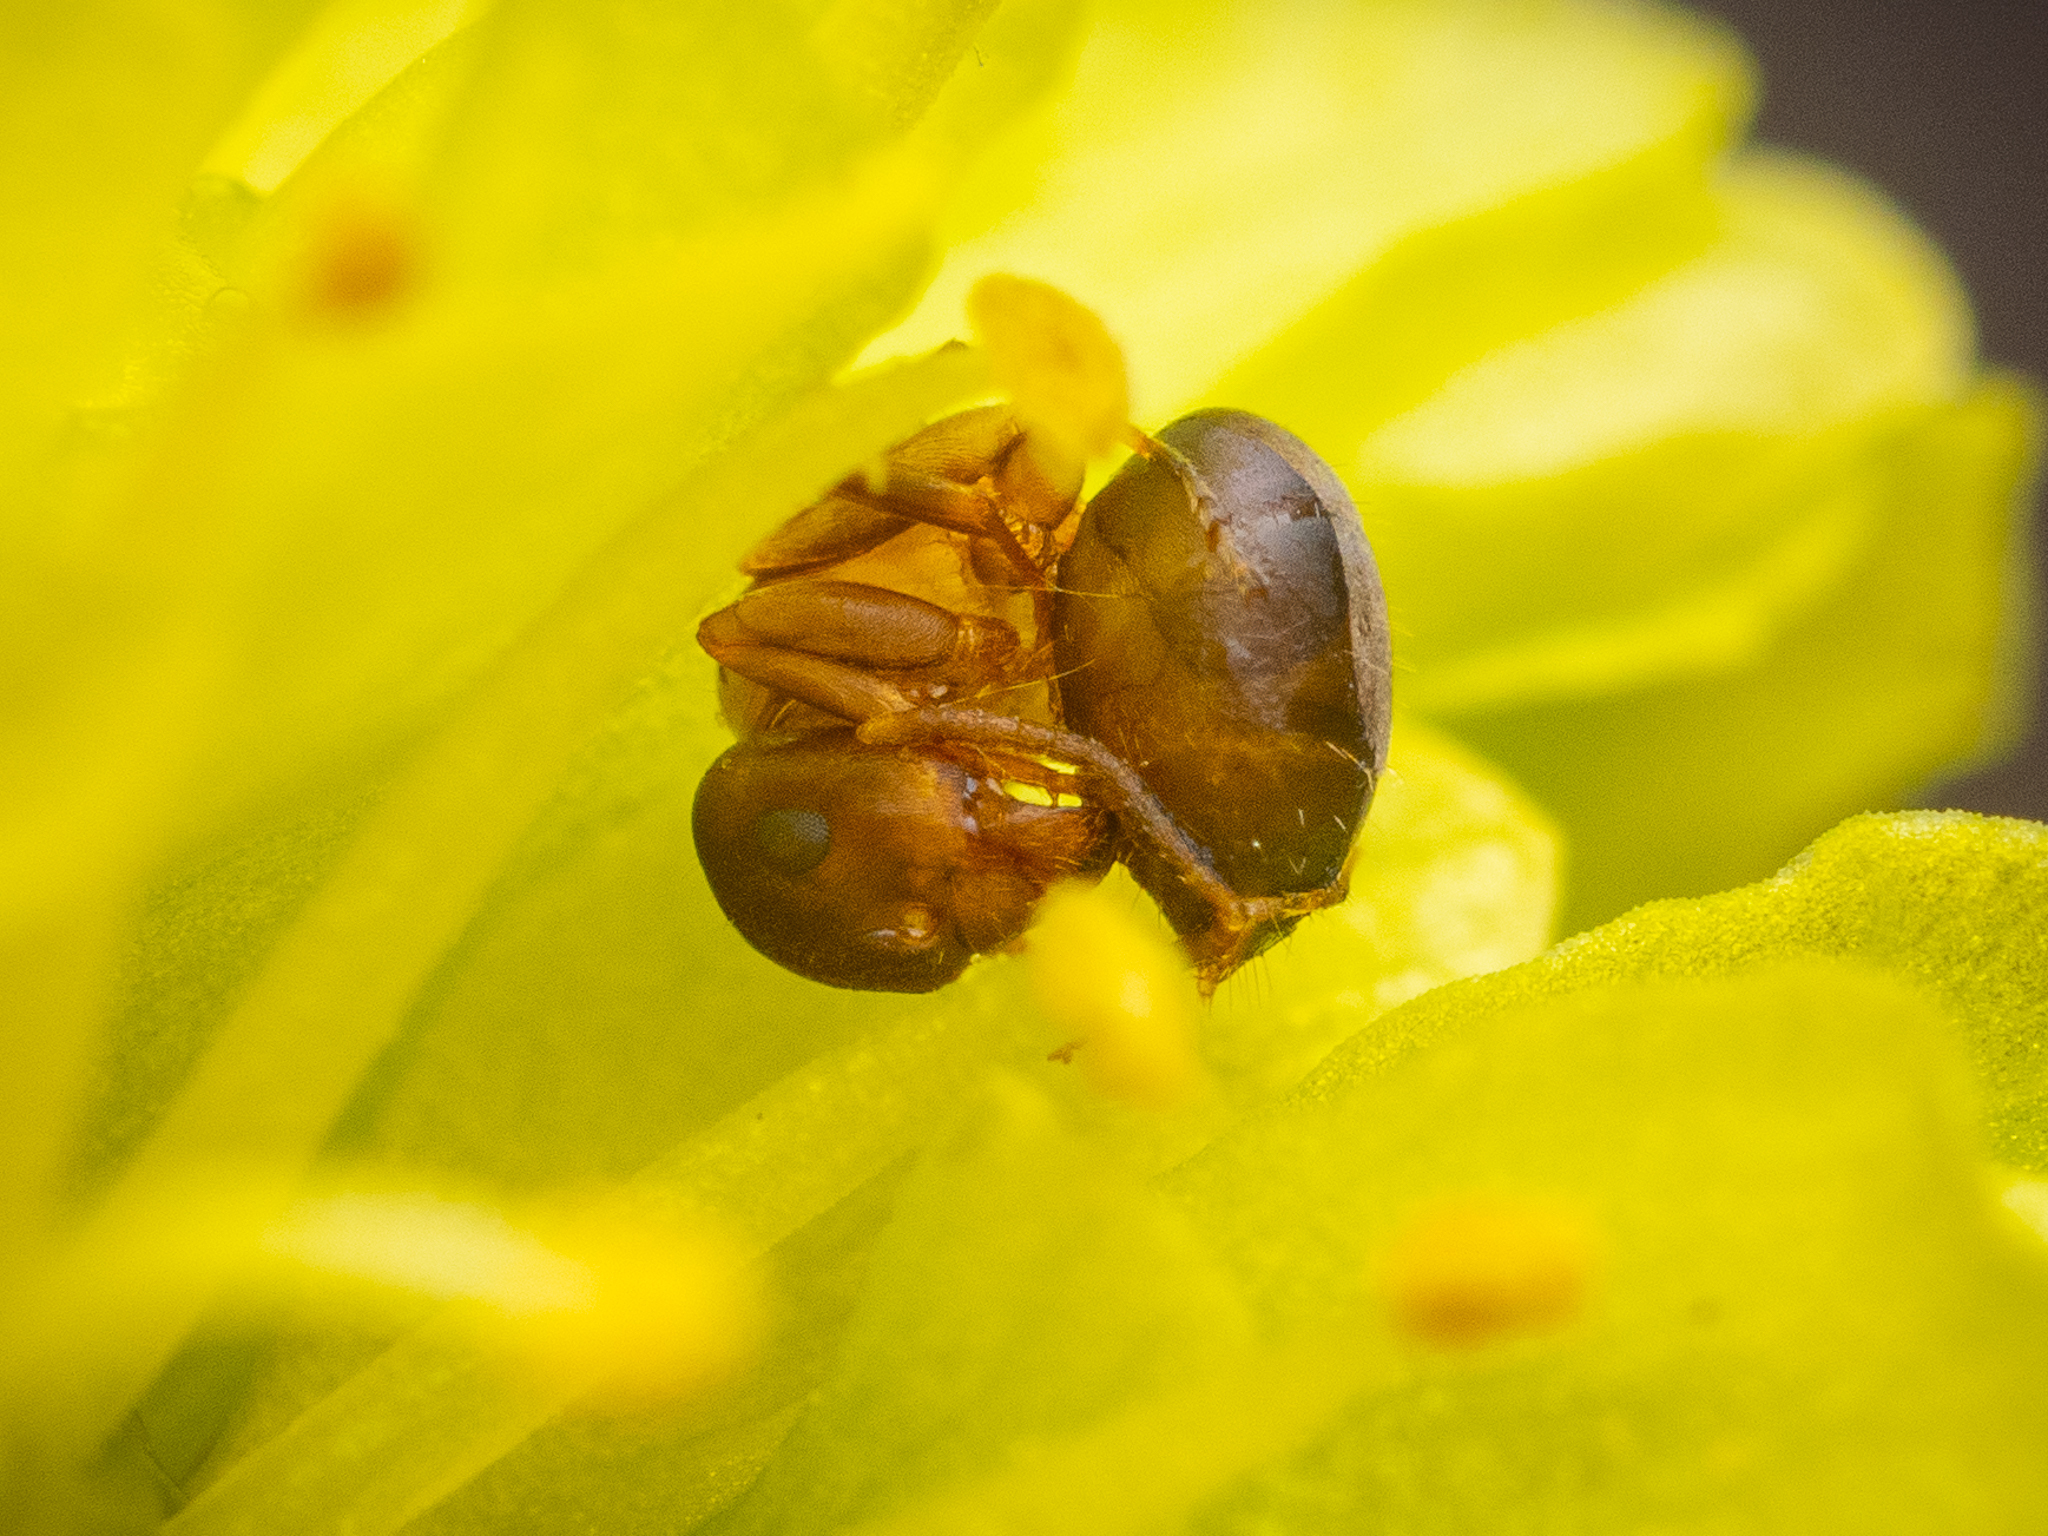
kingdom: Animalia
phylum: Arthropoda
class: Insecta
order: Hymenoptera
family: Formicidae
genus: Lasius
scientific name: Lasius brunneus
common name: Brown ant
